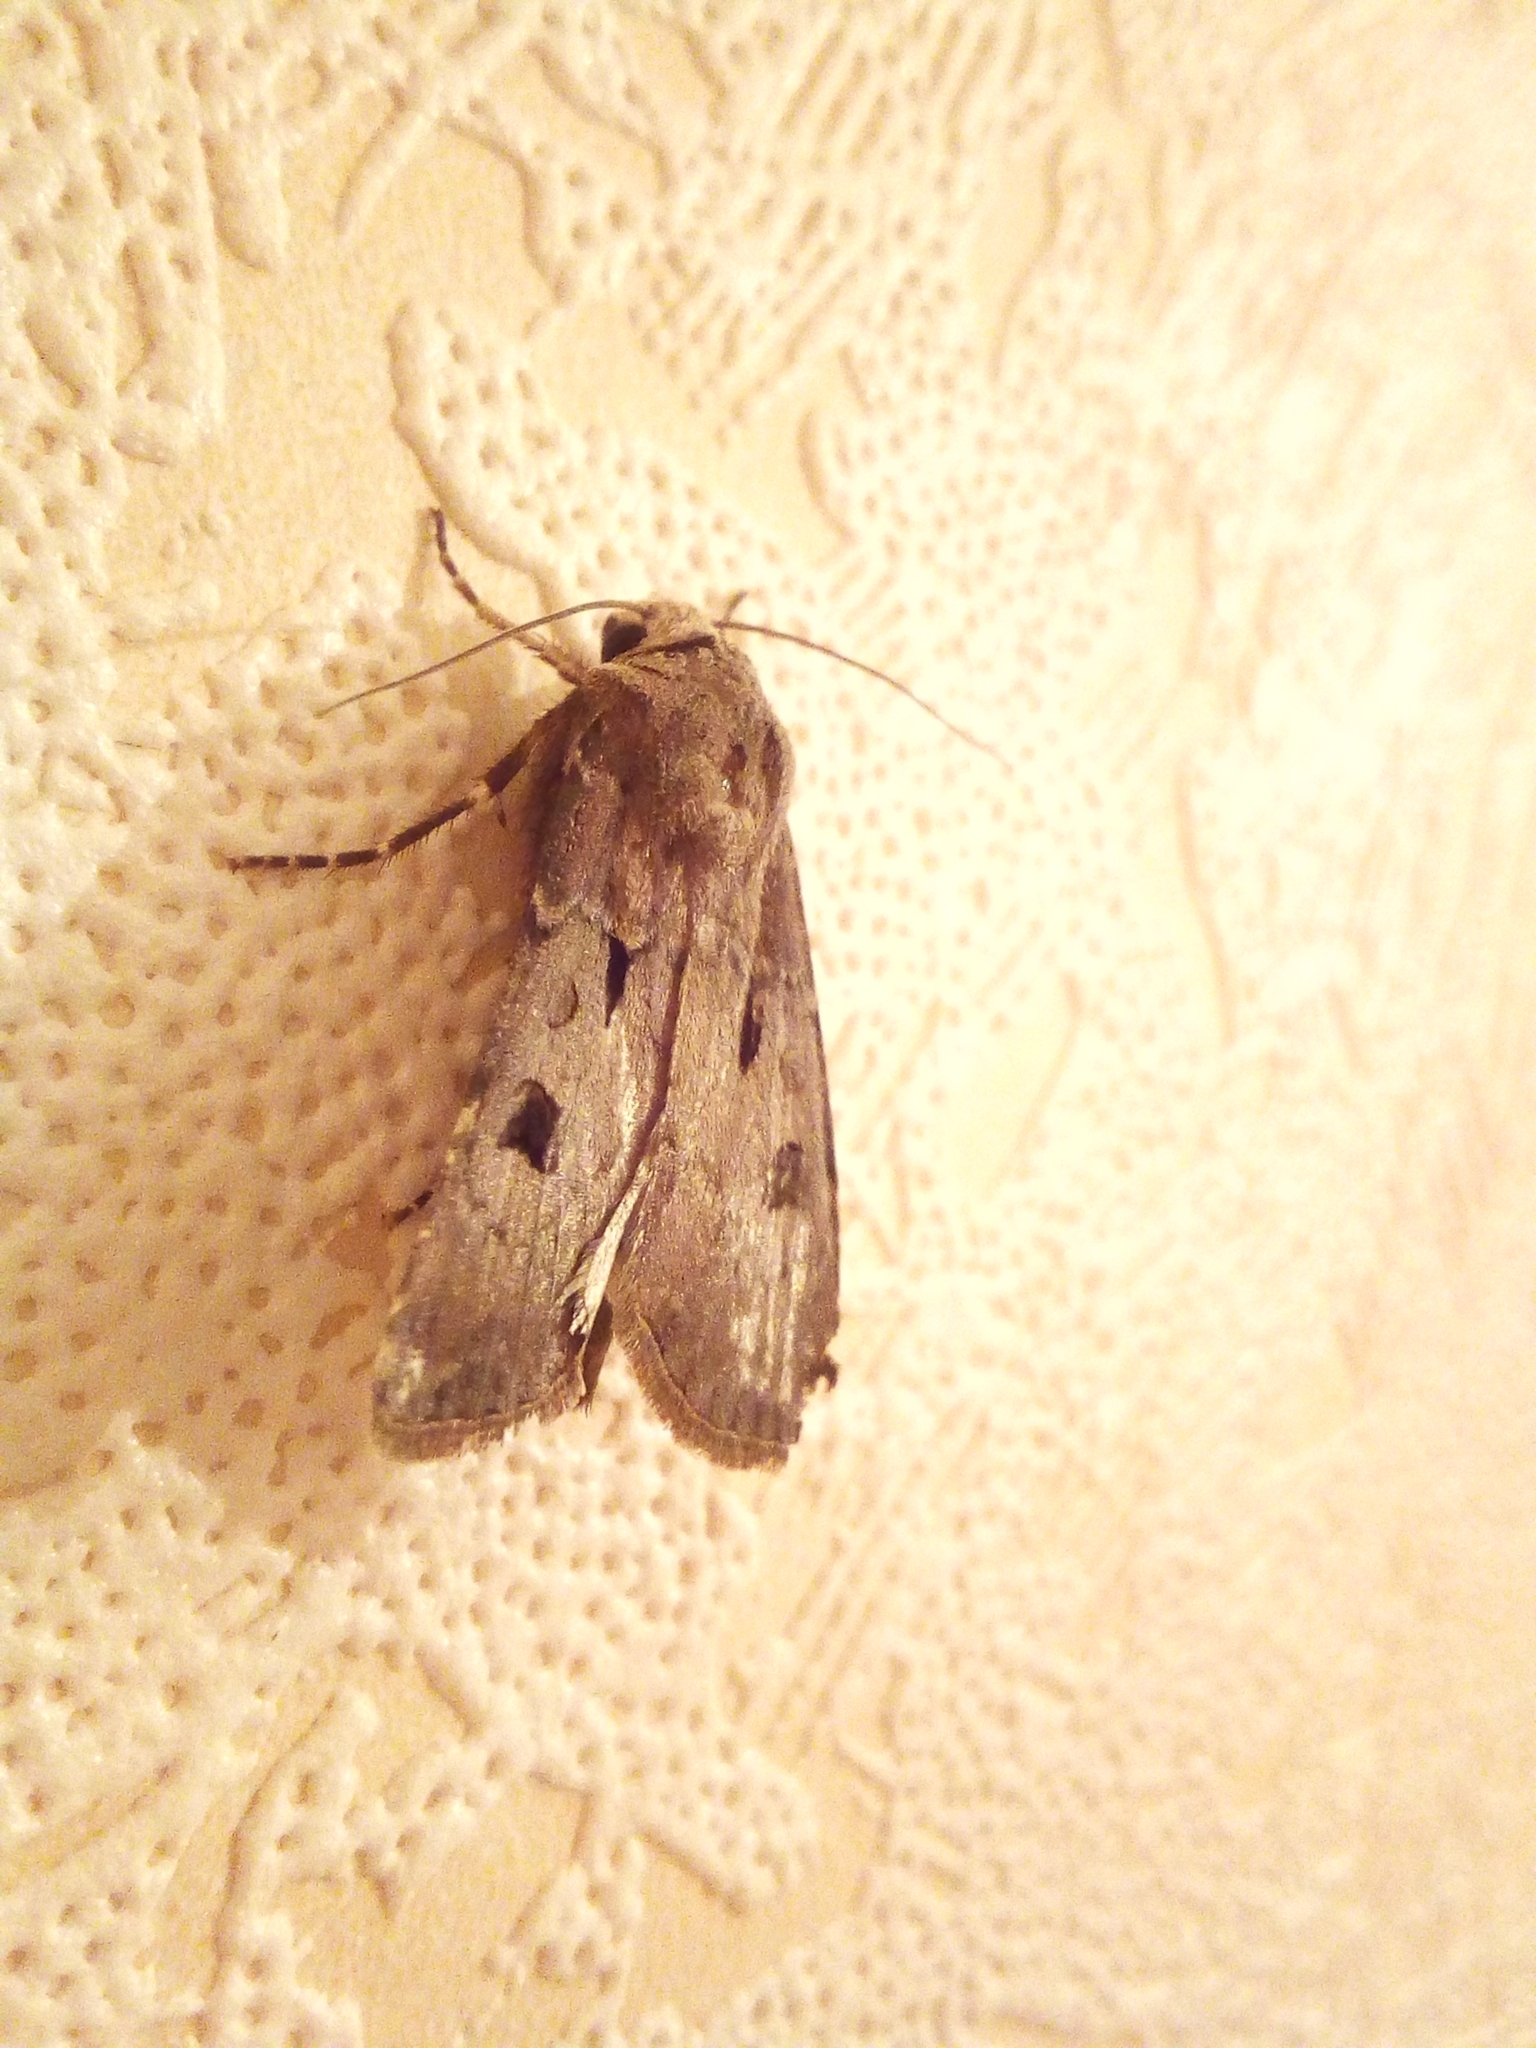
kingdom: Animalia
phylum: Arthropoda
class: Insecta
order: Lepidoptera
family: Noctuidae
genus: Agrotis
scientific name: Agrotis exclamationis
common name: Heart and dart
